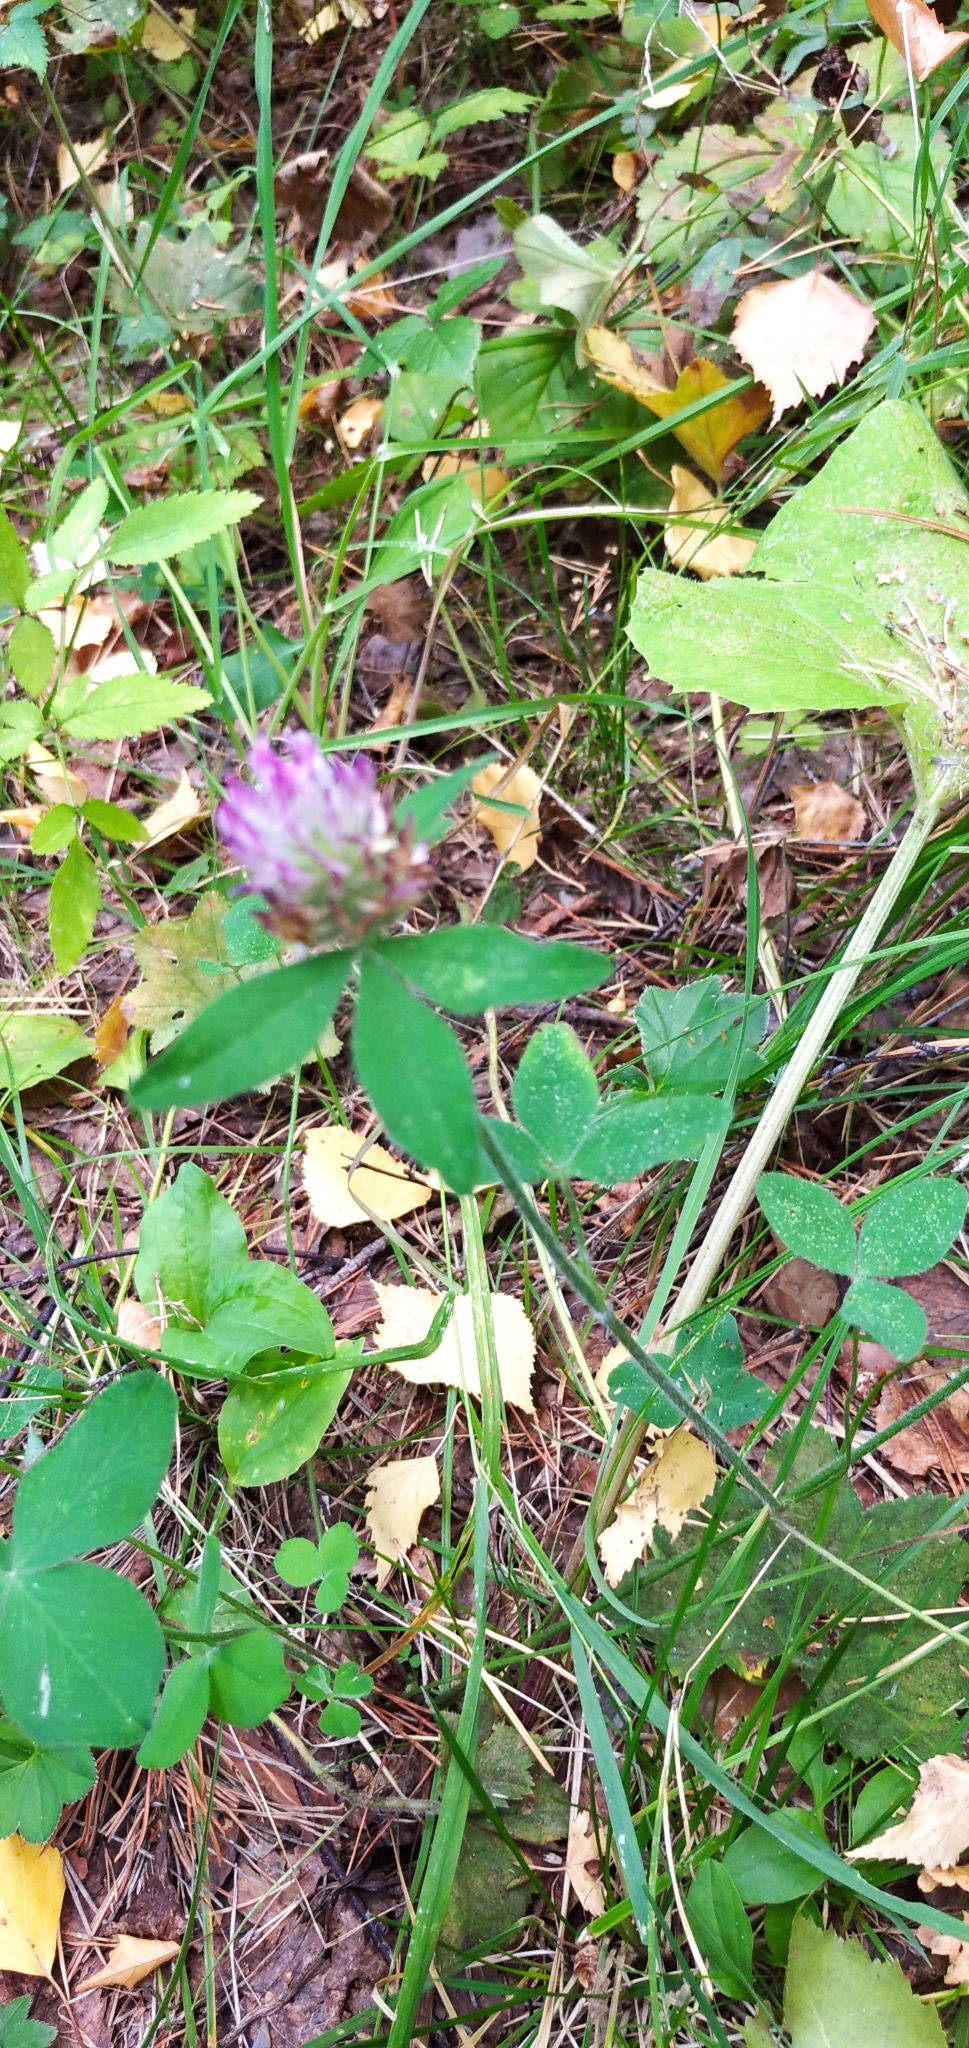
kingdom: Plantae
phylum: Tracheophyta
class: Magnoliopsida
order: Fabales
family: Fabaceae
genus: Trifolium
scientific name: Trifolium medium
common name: Zigzag clover
